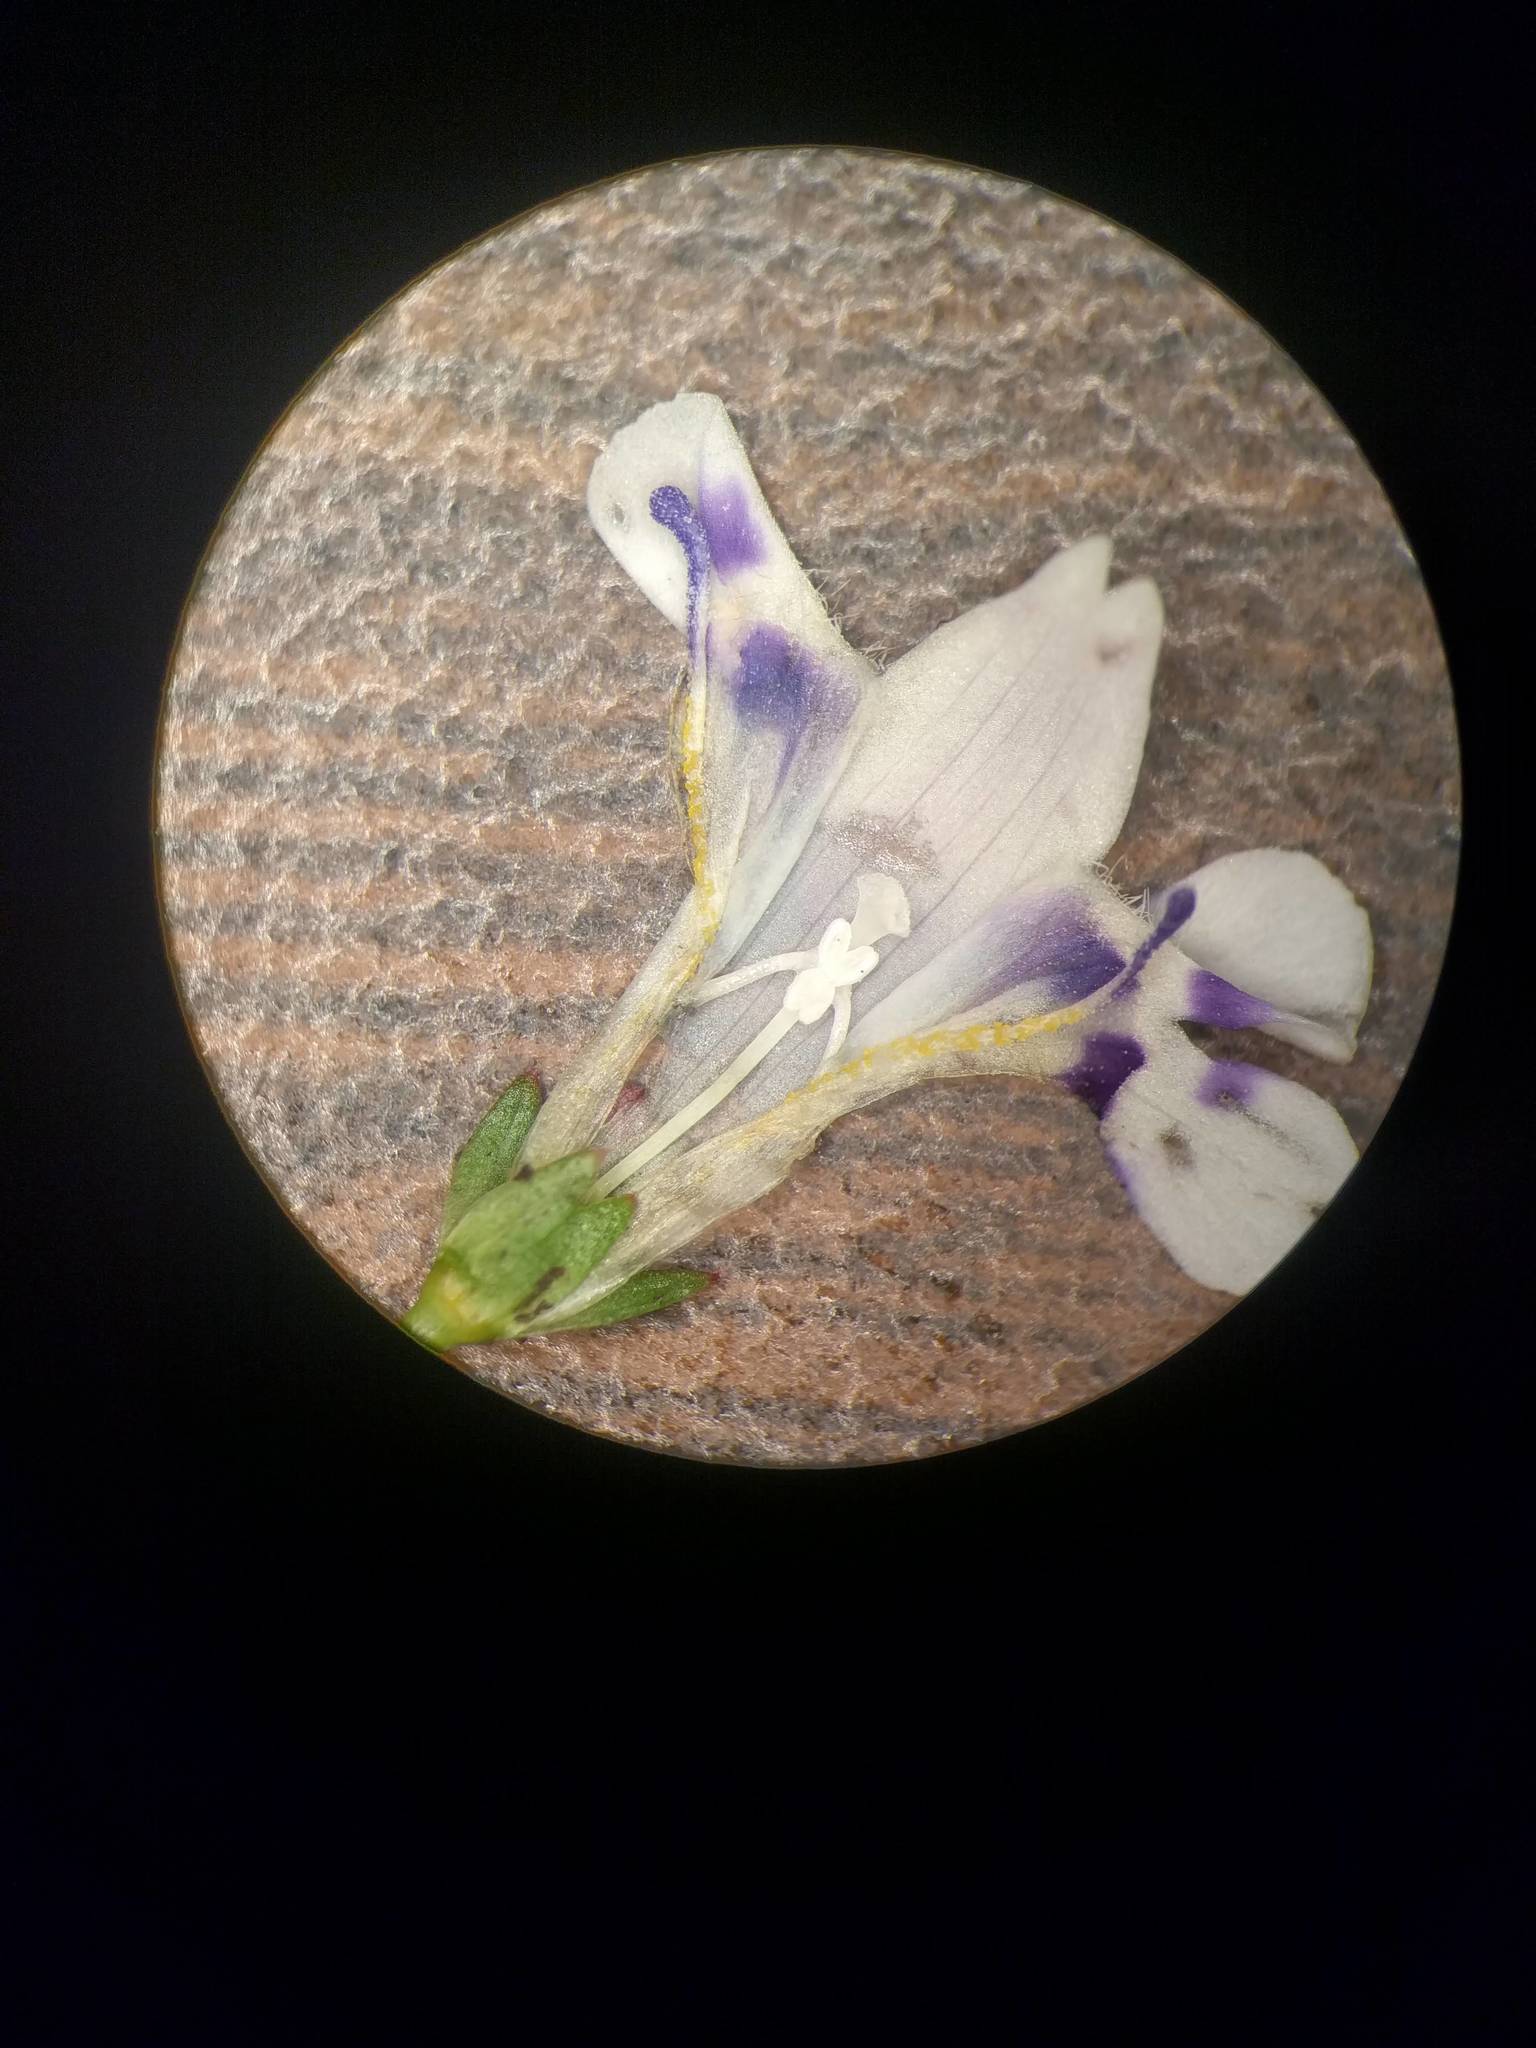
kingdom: Plantae
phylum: Tracheophyta
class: Magnoliopsida
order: Lamiales
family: Linderniaceae
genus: Lindernia
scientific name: Lindernia rotundifolia
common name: Baby’s tears
